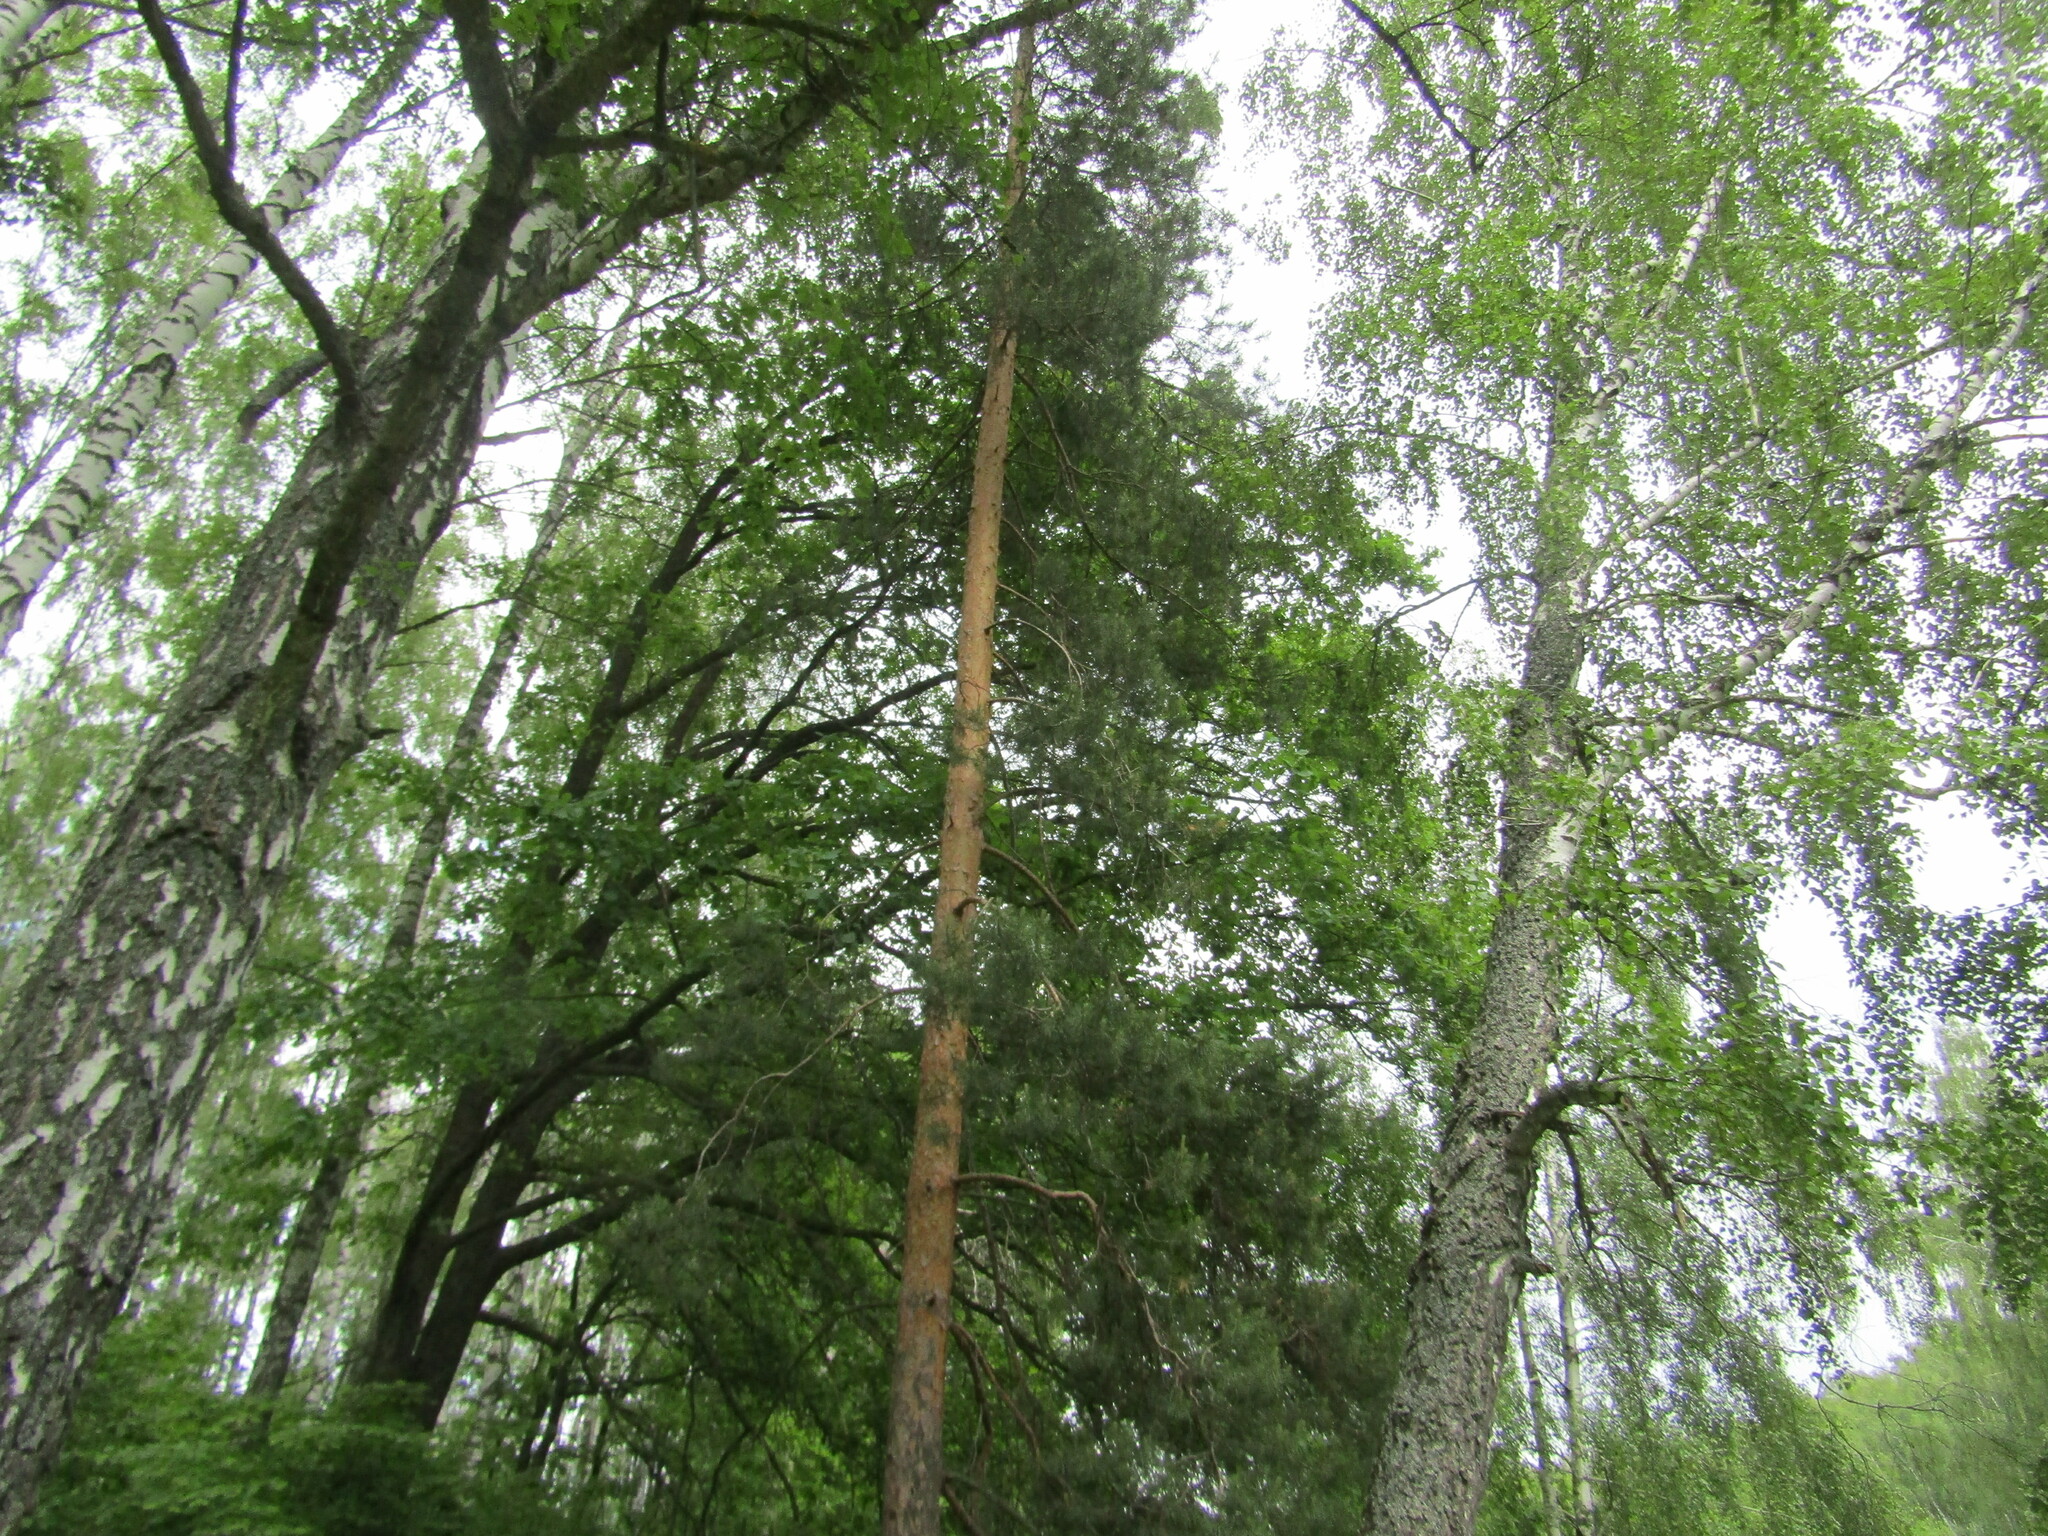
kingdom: Plantae
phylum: Tracheophyta
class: Pinopsida
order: Pinales
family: Pinaceae
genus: Pinus
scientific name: Pinus sylvestris
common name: Scots pine
